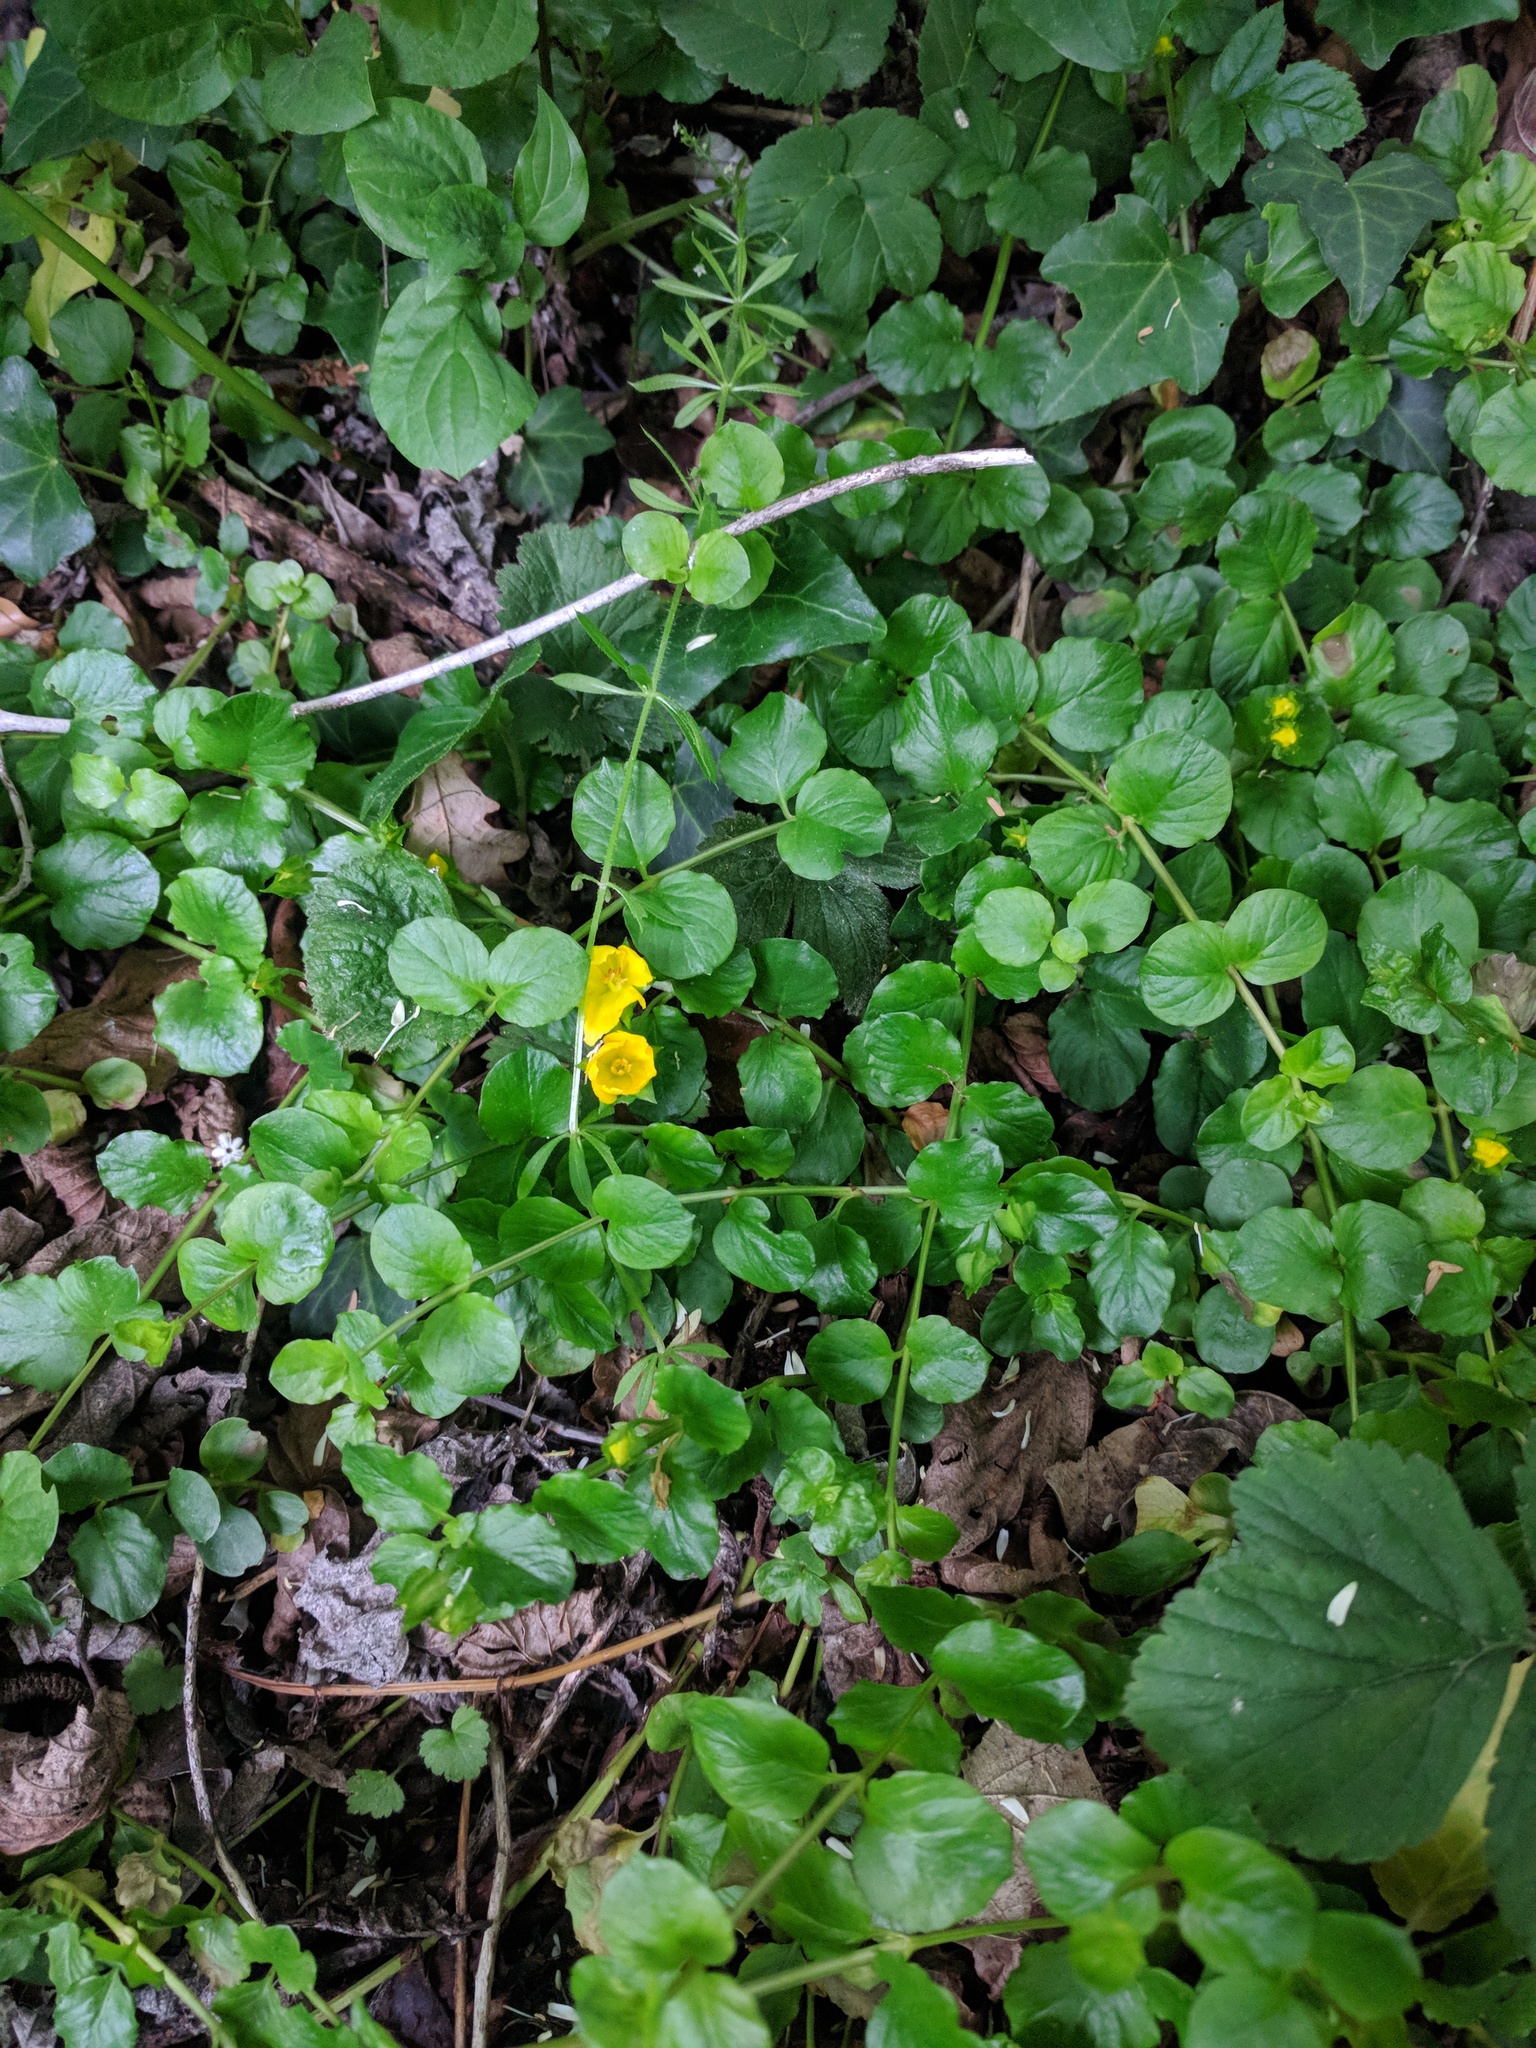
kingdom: Plantae
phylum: Tracheophyta
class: Magnoliopsida
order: Ericales
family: Primulaceae
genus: Lysimachia
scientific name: Lysimachia nummularia
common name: Moneywort
